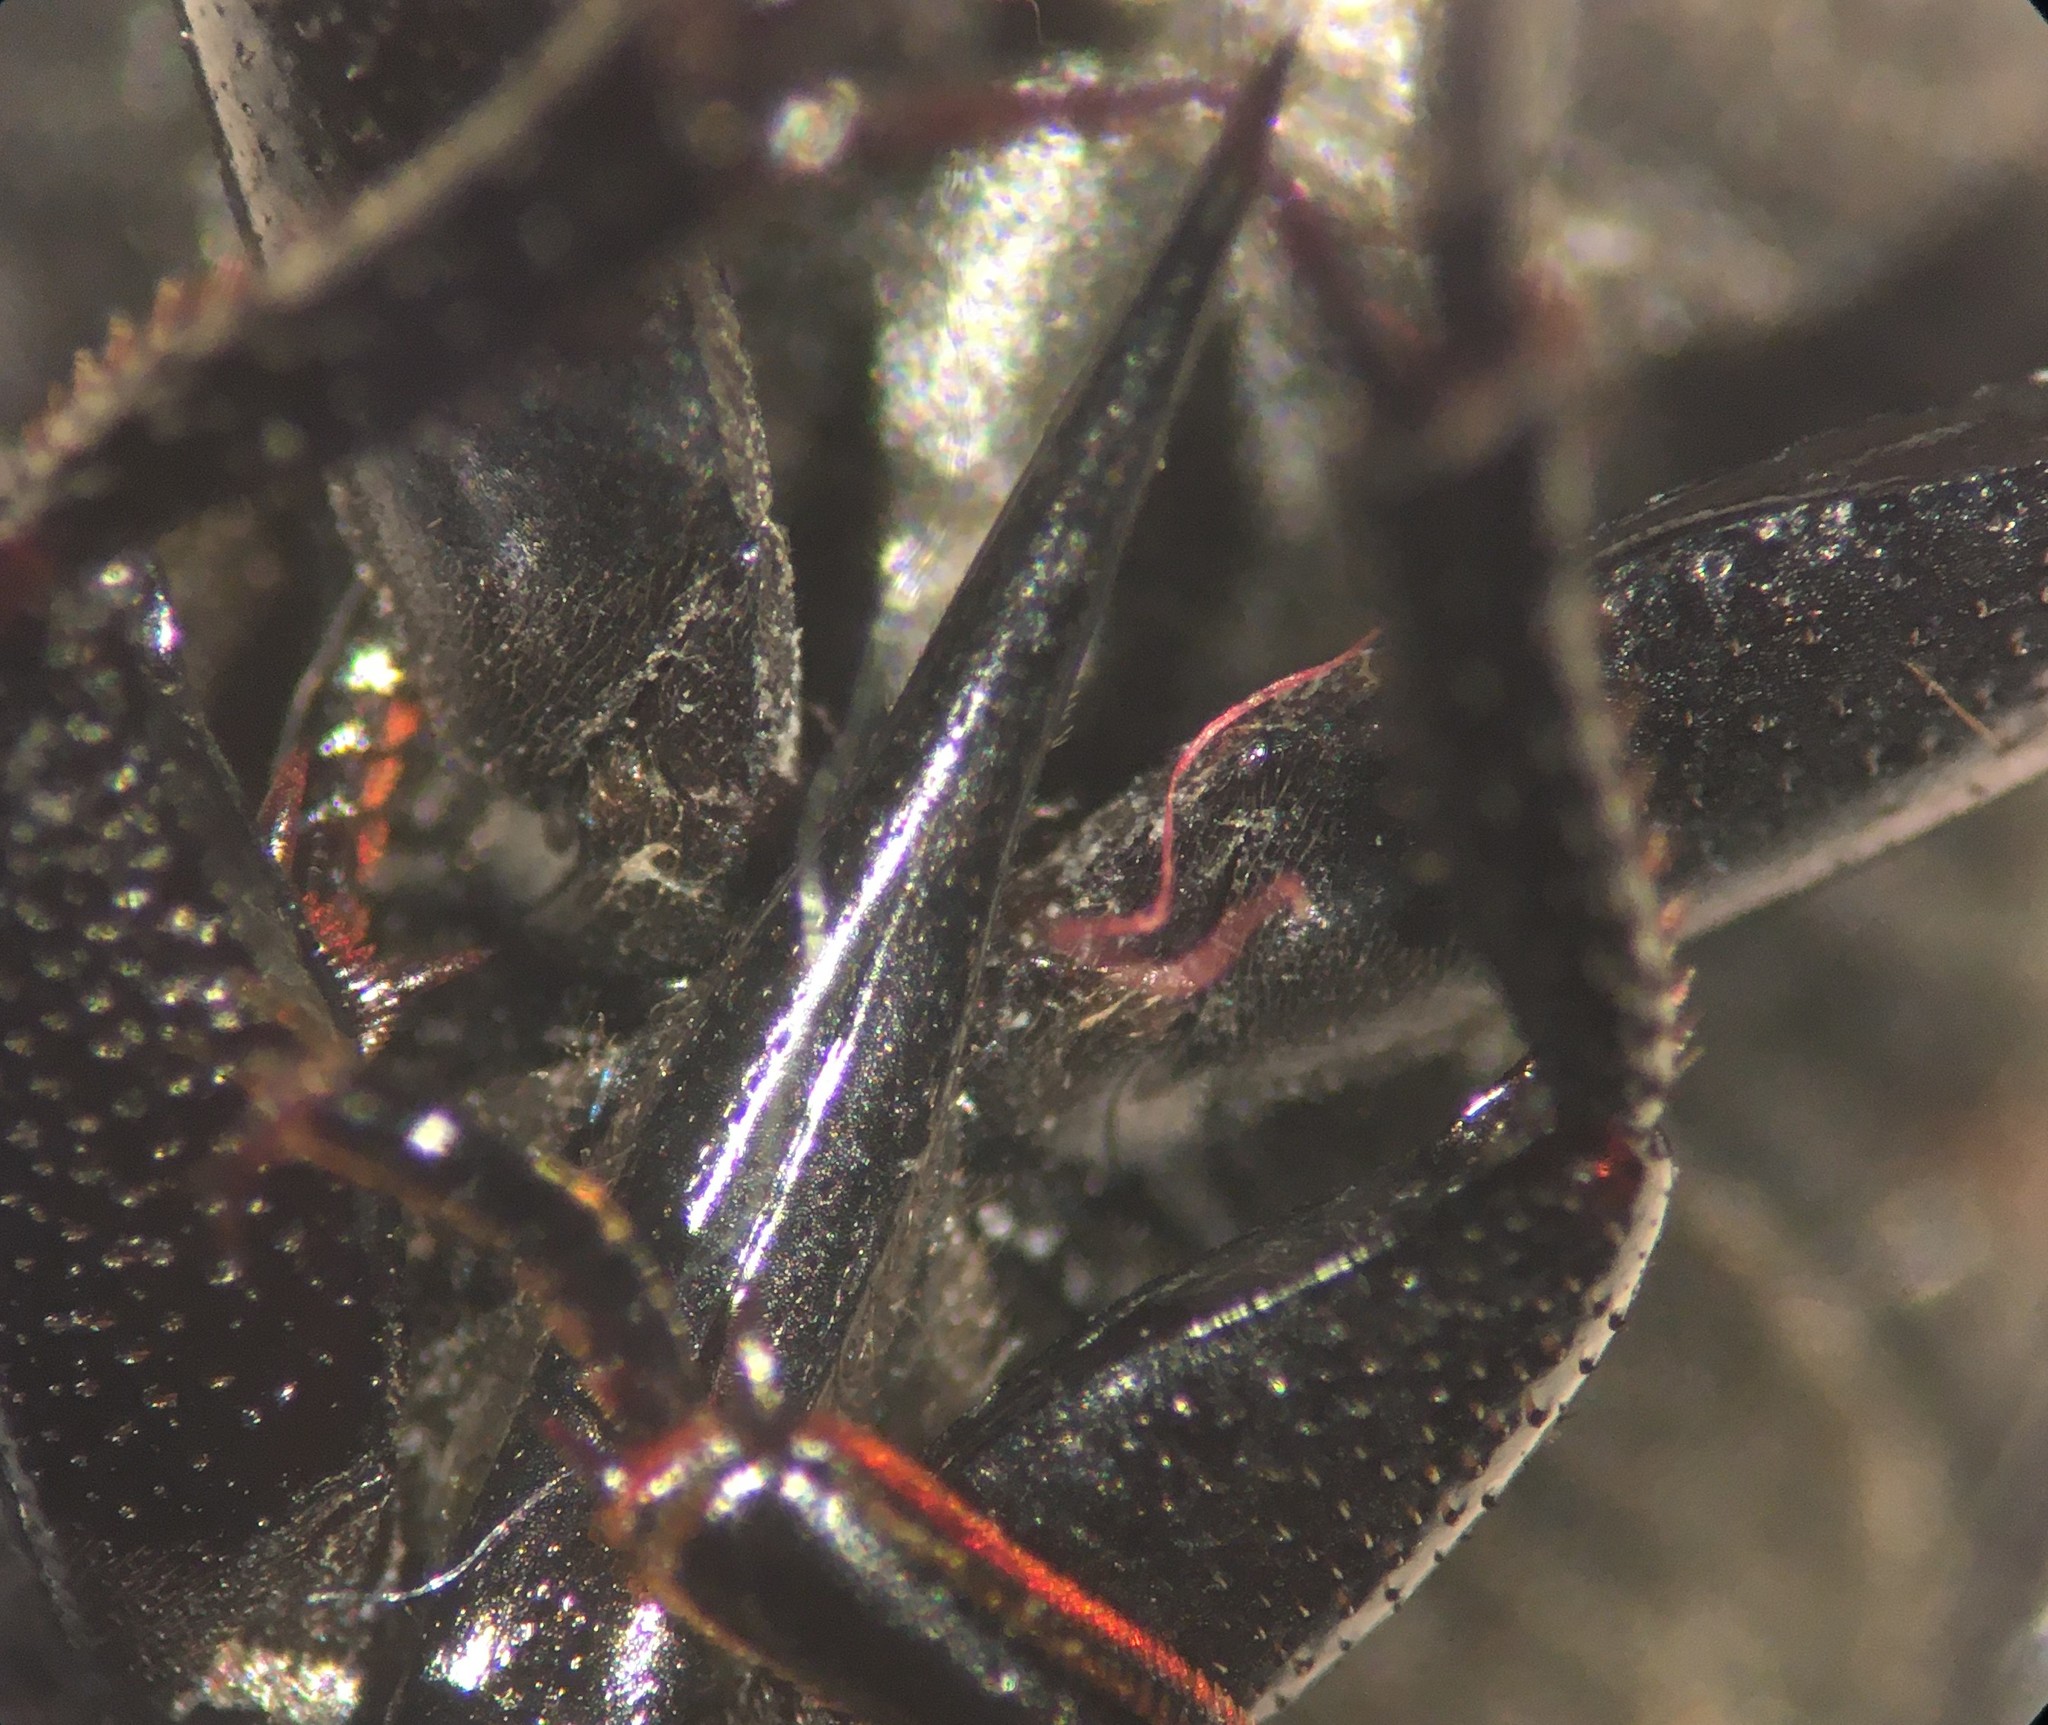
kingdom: Animalia
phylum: Arthropoda
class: Insecta
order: Coleoptera
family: Hydrophilidae
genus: Tropisternus
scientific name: Tropisternus natator
